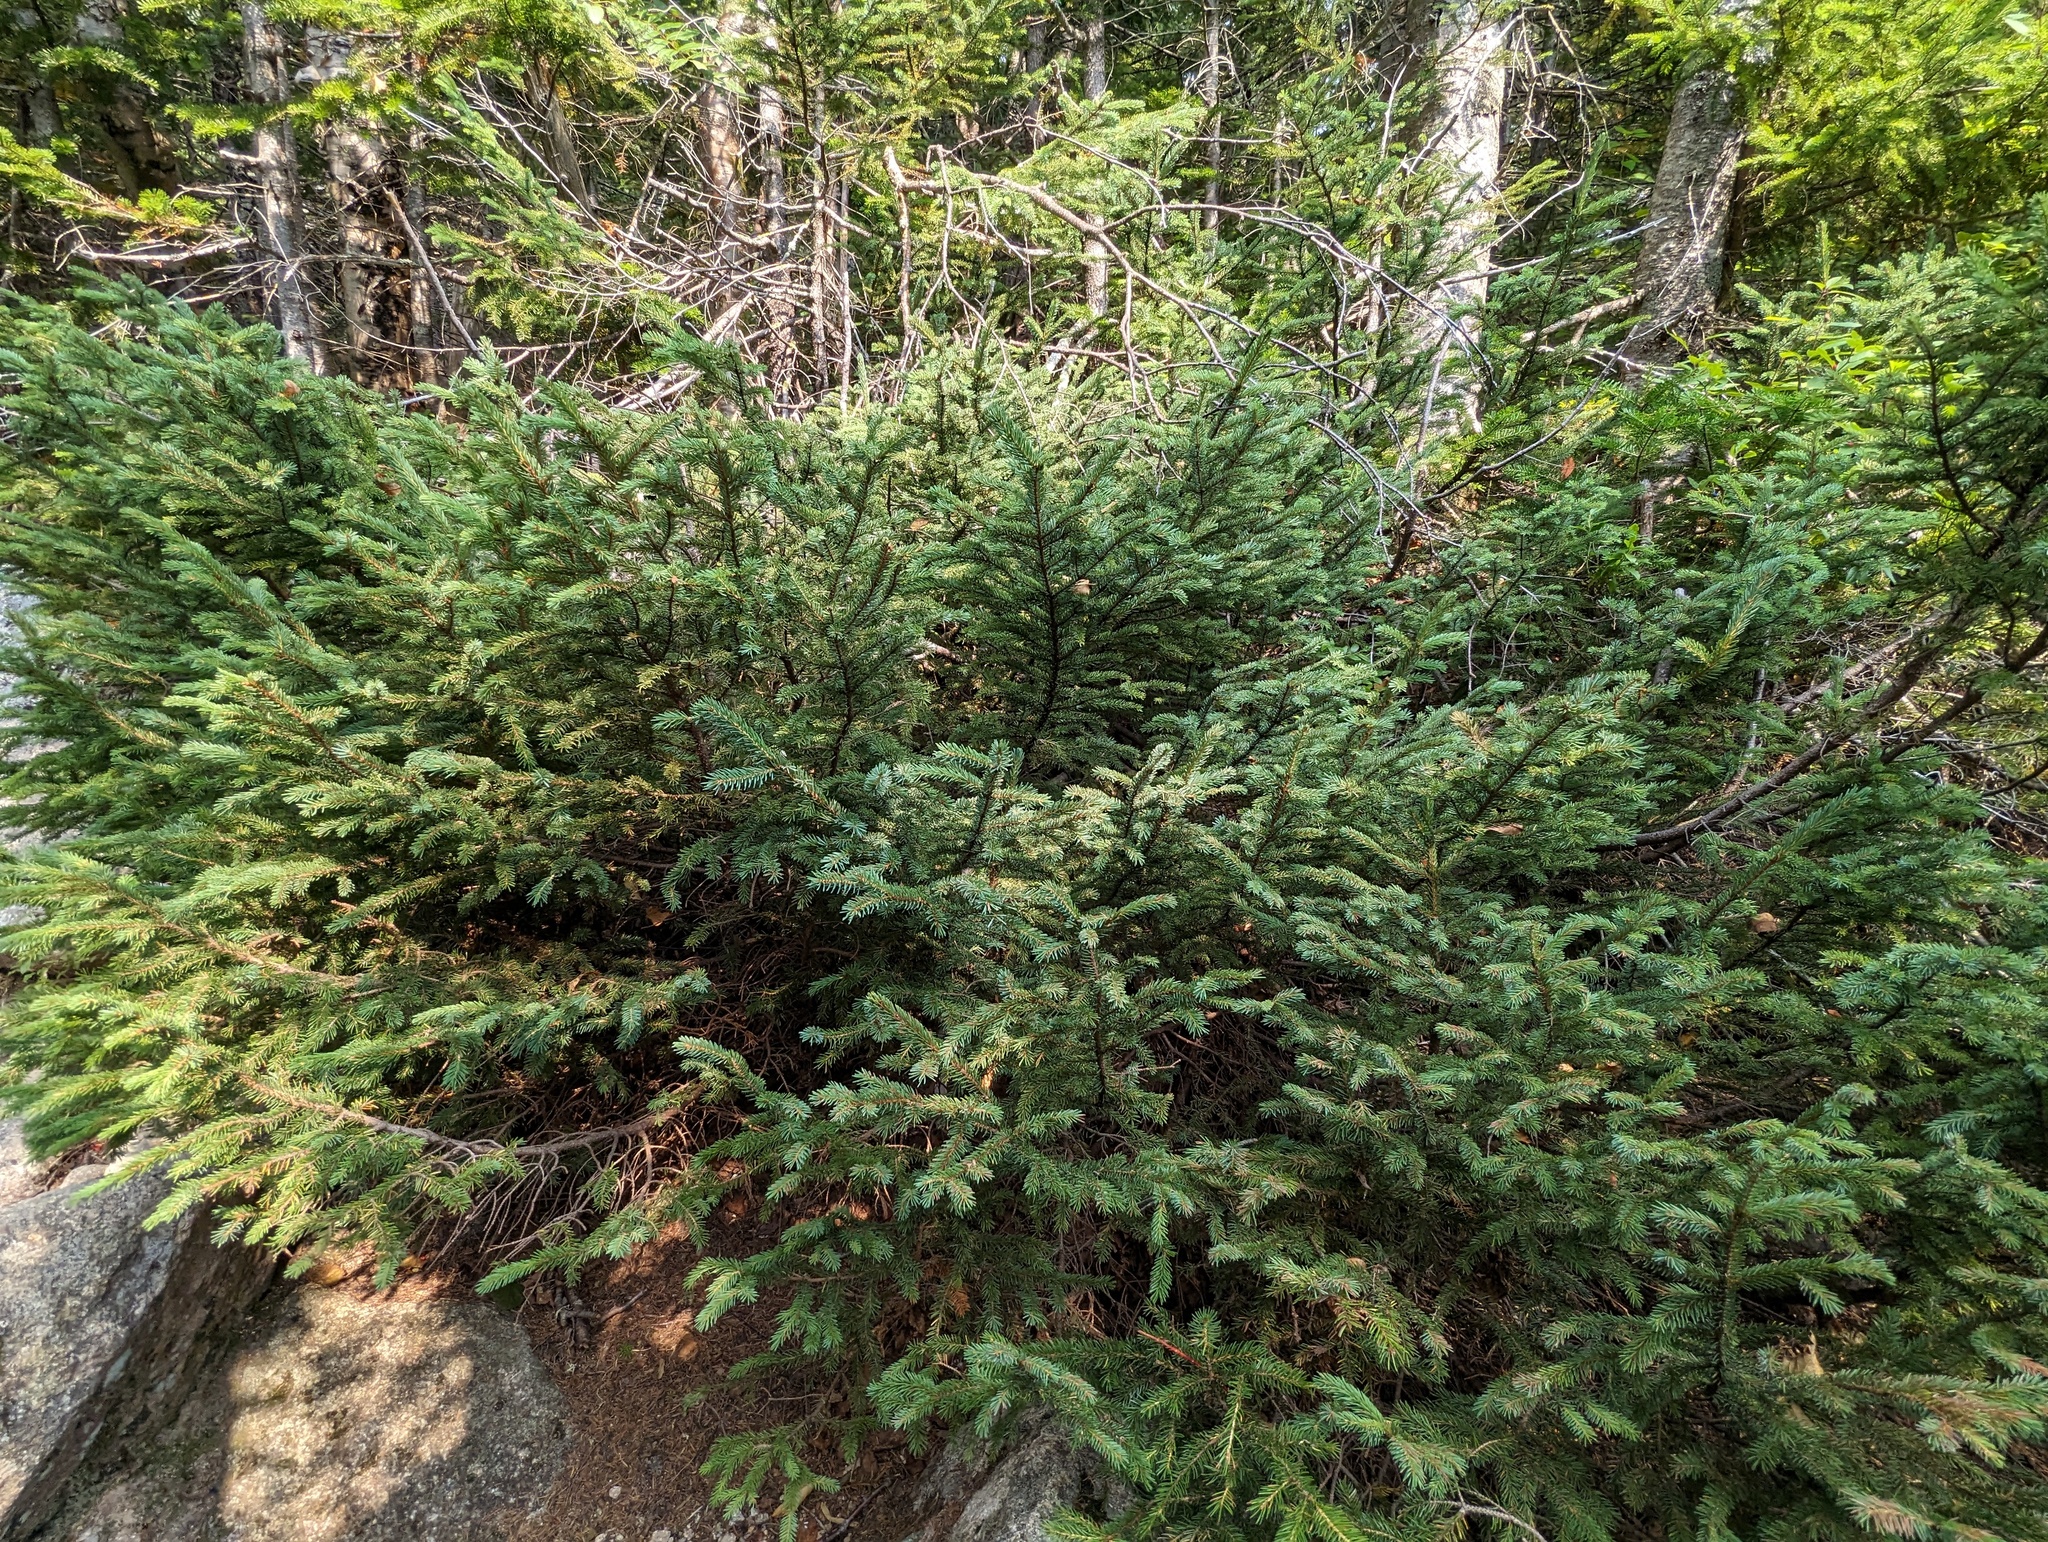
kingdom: Plantae
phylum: Tracheophyta
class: Pinopsida
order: Pinales
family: Pinaceae
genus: Picea
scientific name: Picea mariana
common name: Black spruce
